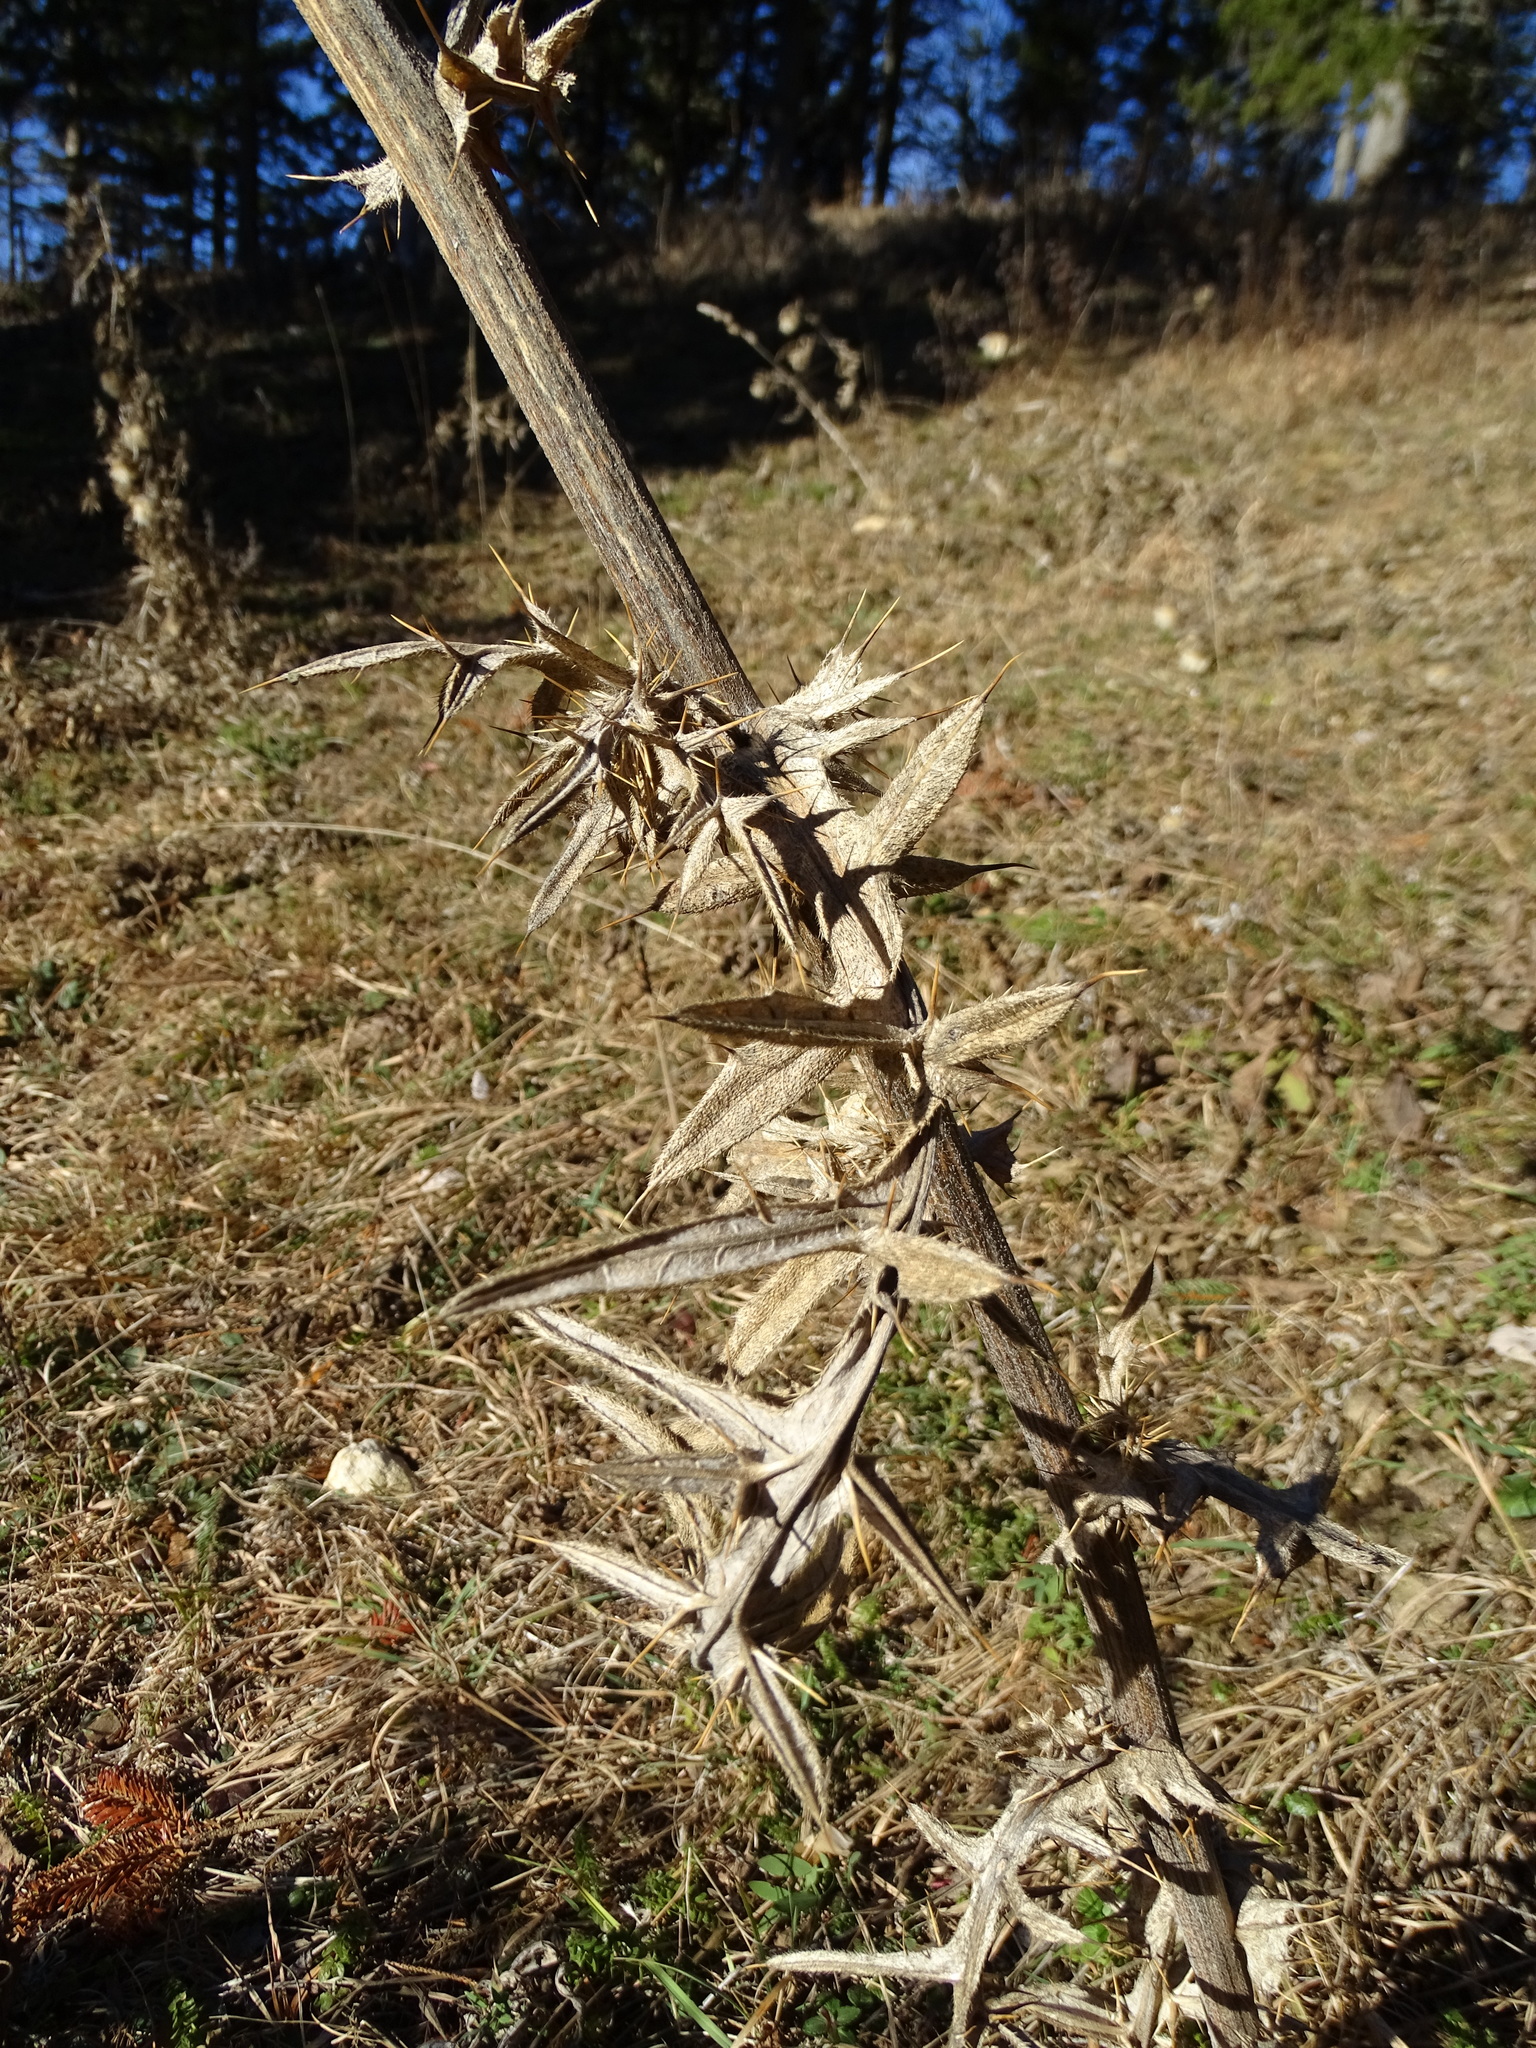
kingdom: Plantae
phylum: Tracheophyta
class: Magnoliopsida
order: Asterales
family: Asteraceae
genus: Lophiolepis
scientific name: Lophiolepis eriophora
